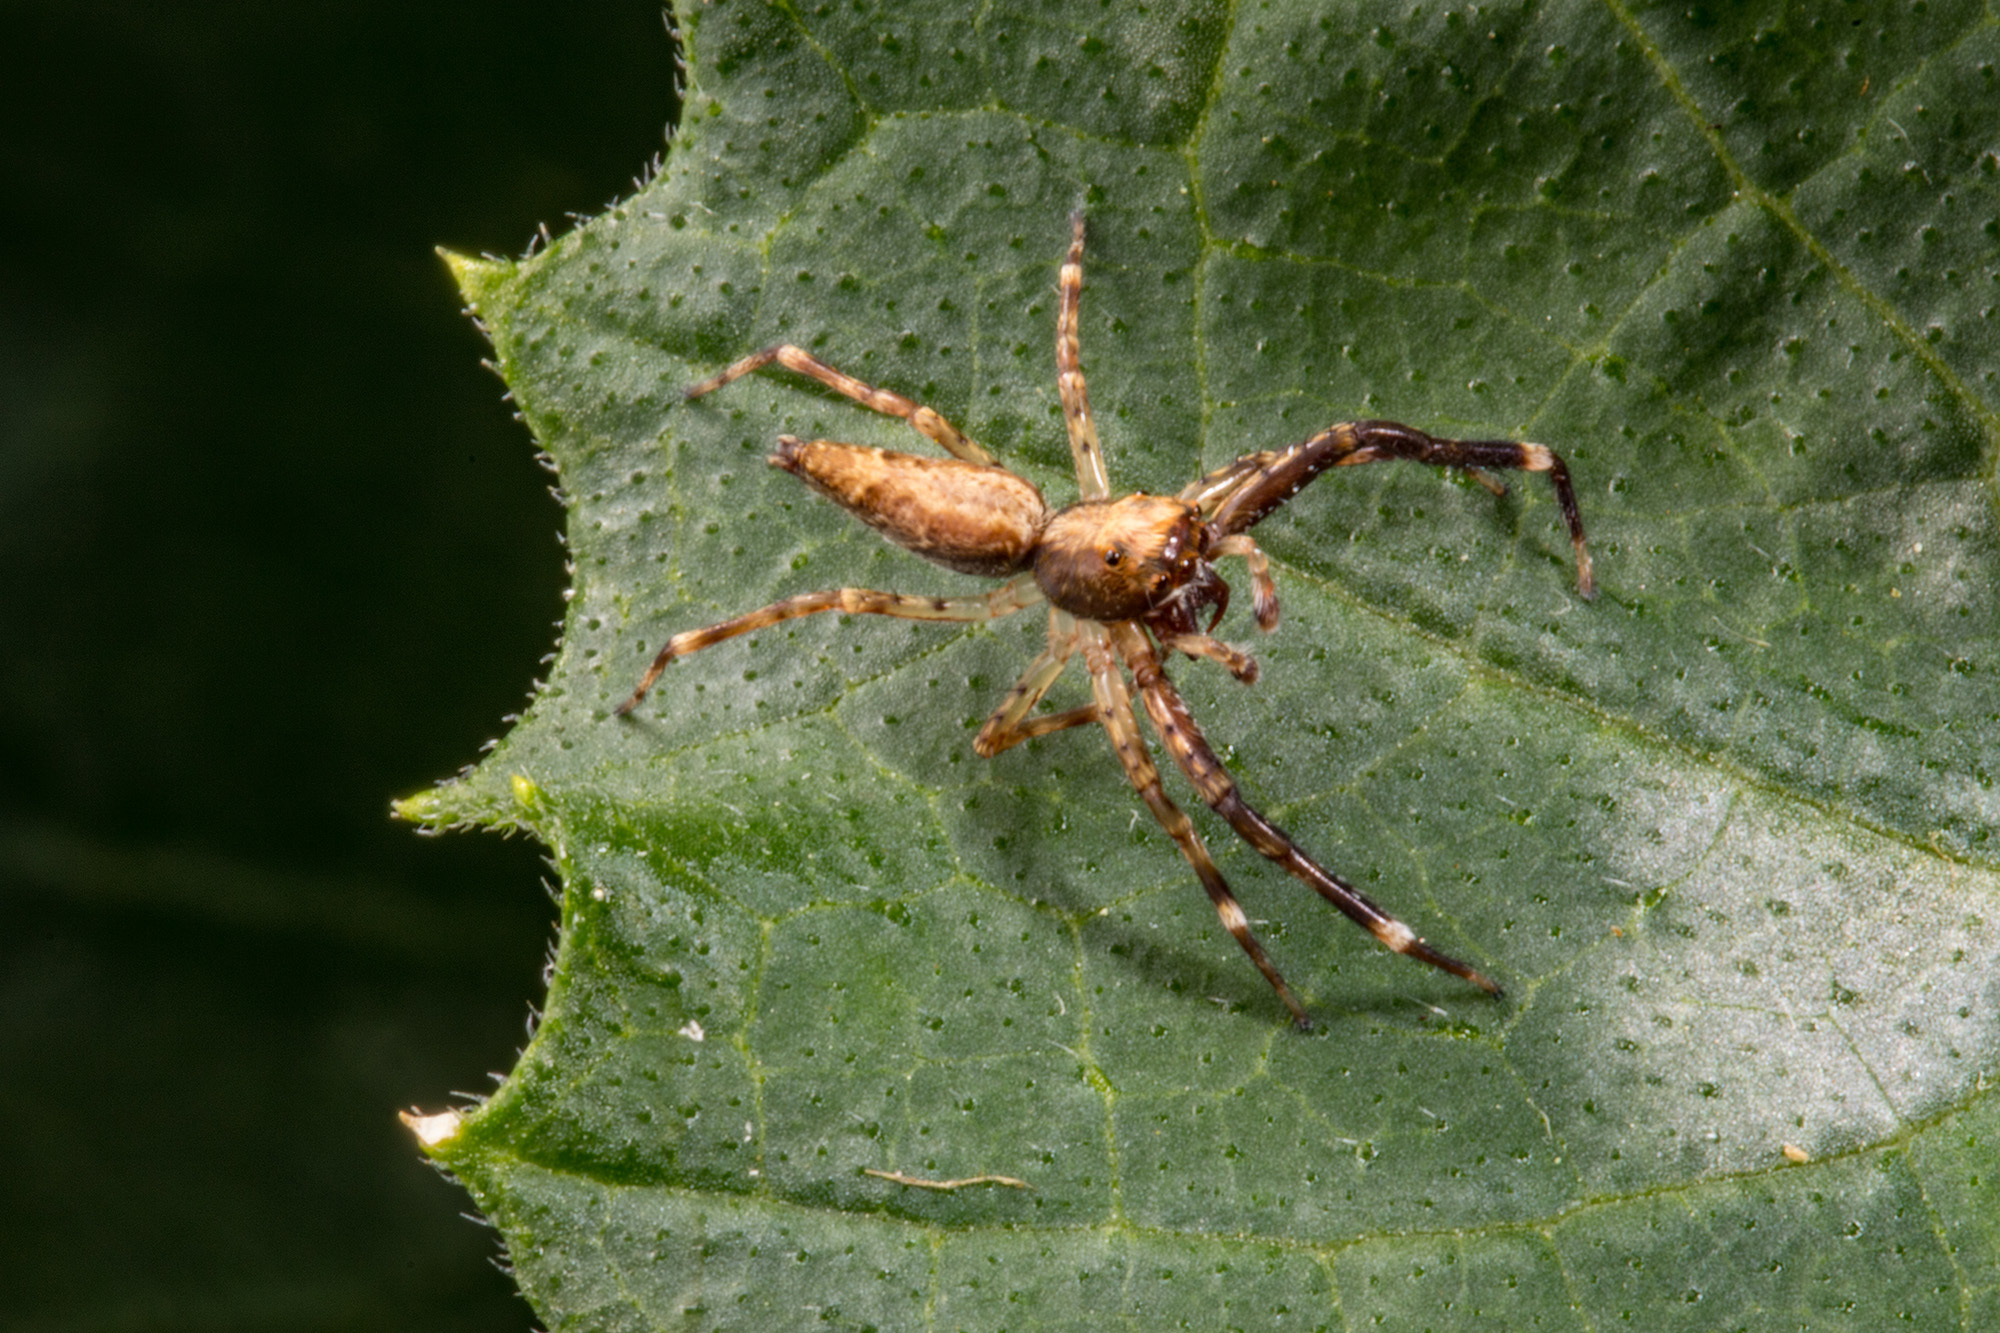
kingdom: Animalia
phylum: Arthropoda
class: Arachnida
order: Araneae
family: Salticidae
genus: Helpis
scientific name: Helpis minitabunda
